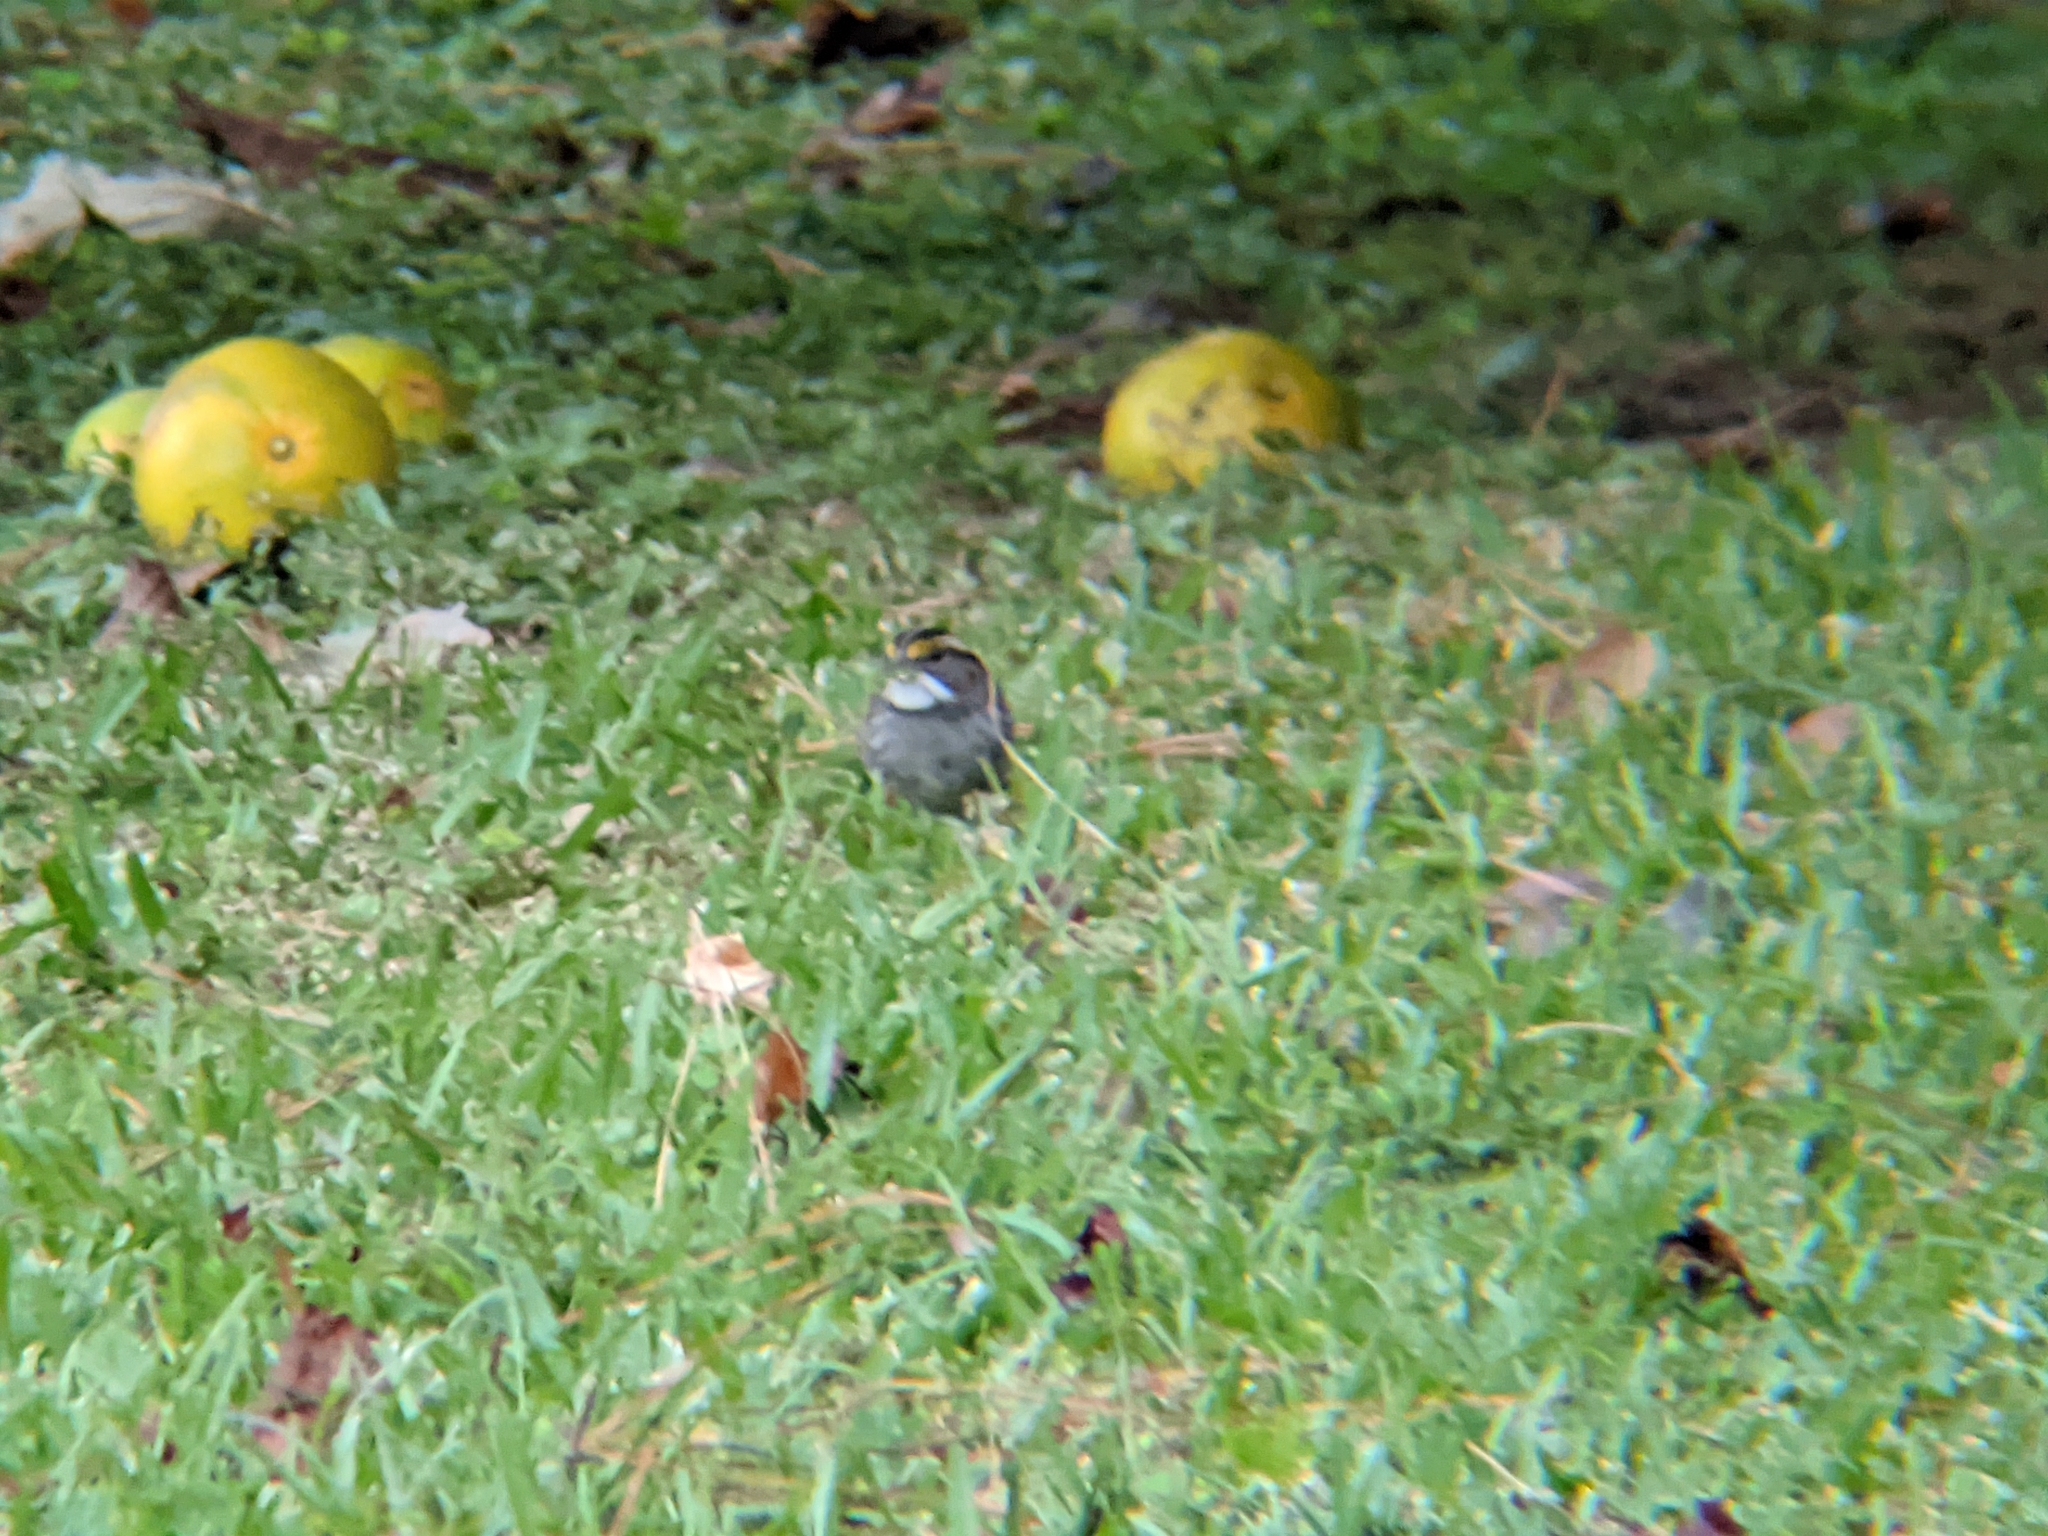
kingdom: Animalia
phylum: Chordata
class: Aves
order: Passeriformes
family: Passerellidae
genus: Zonotrichia
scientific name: Zonotrichia albicollis
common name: White-throated sparrow
